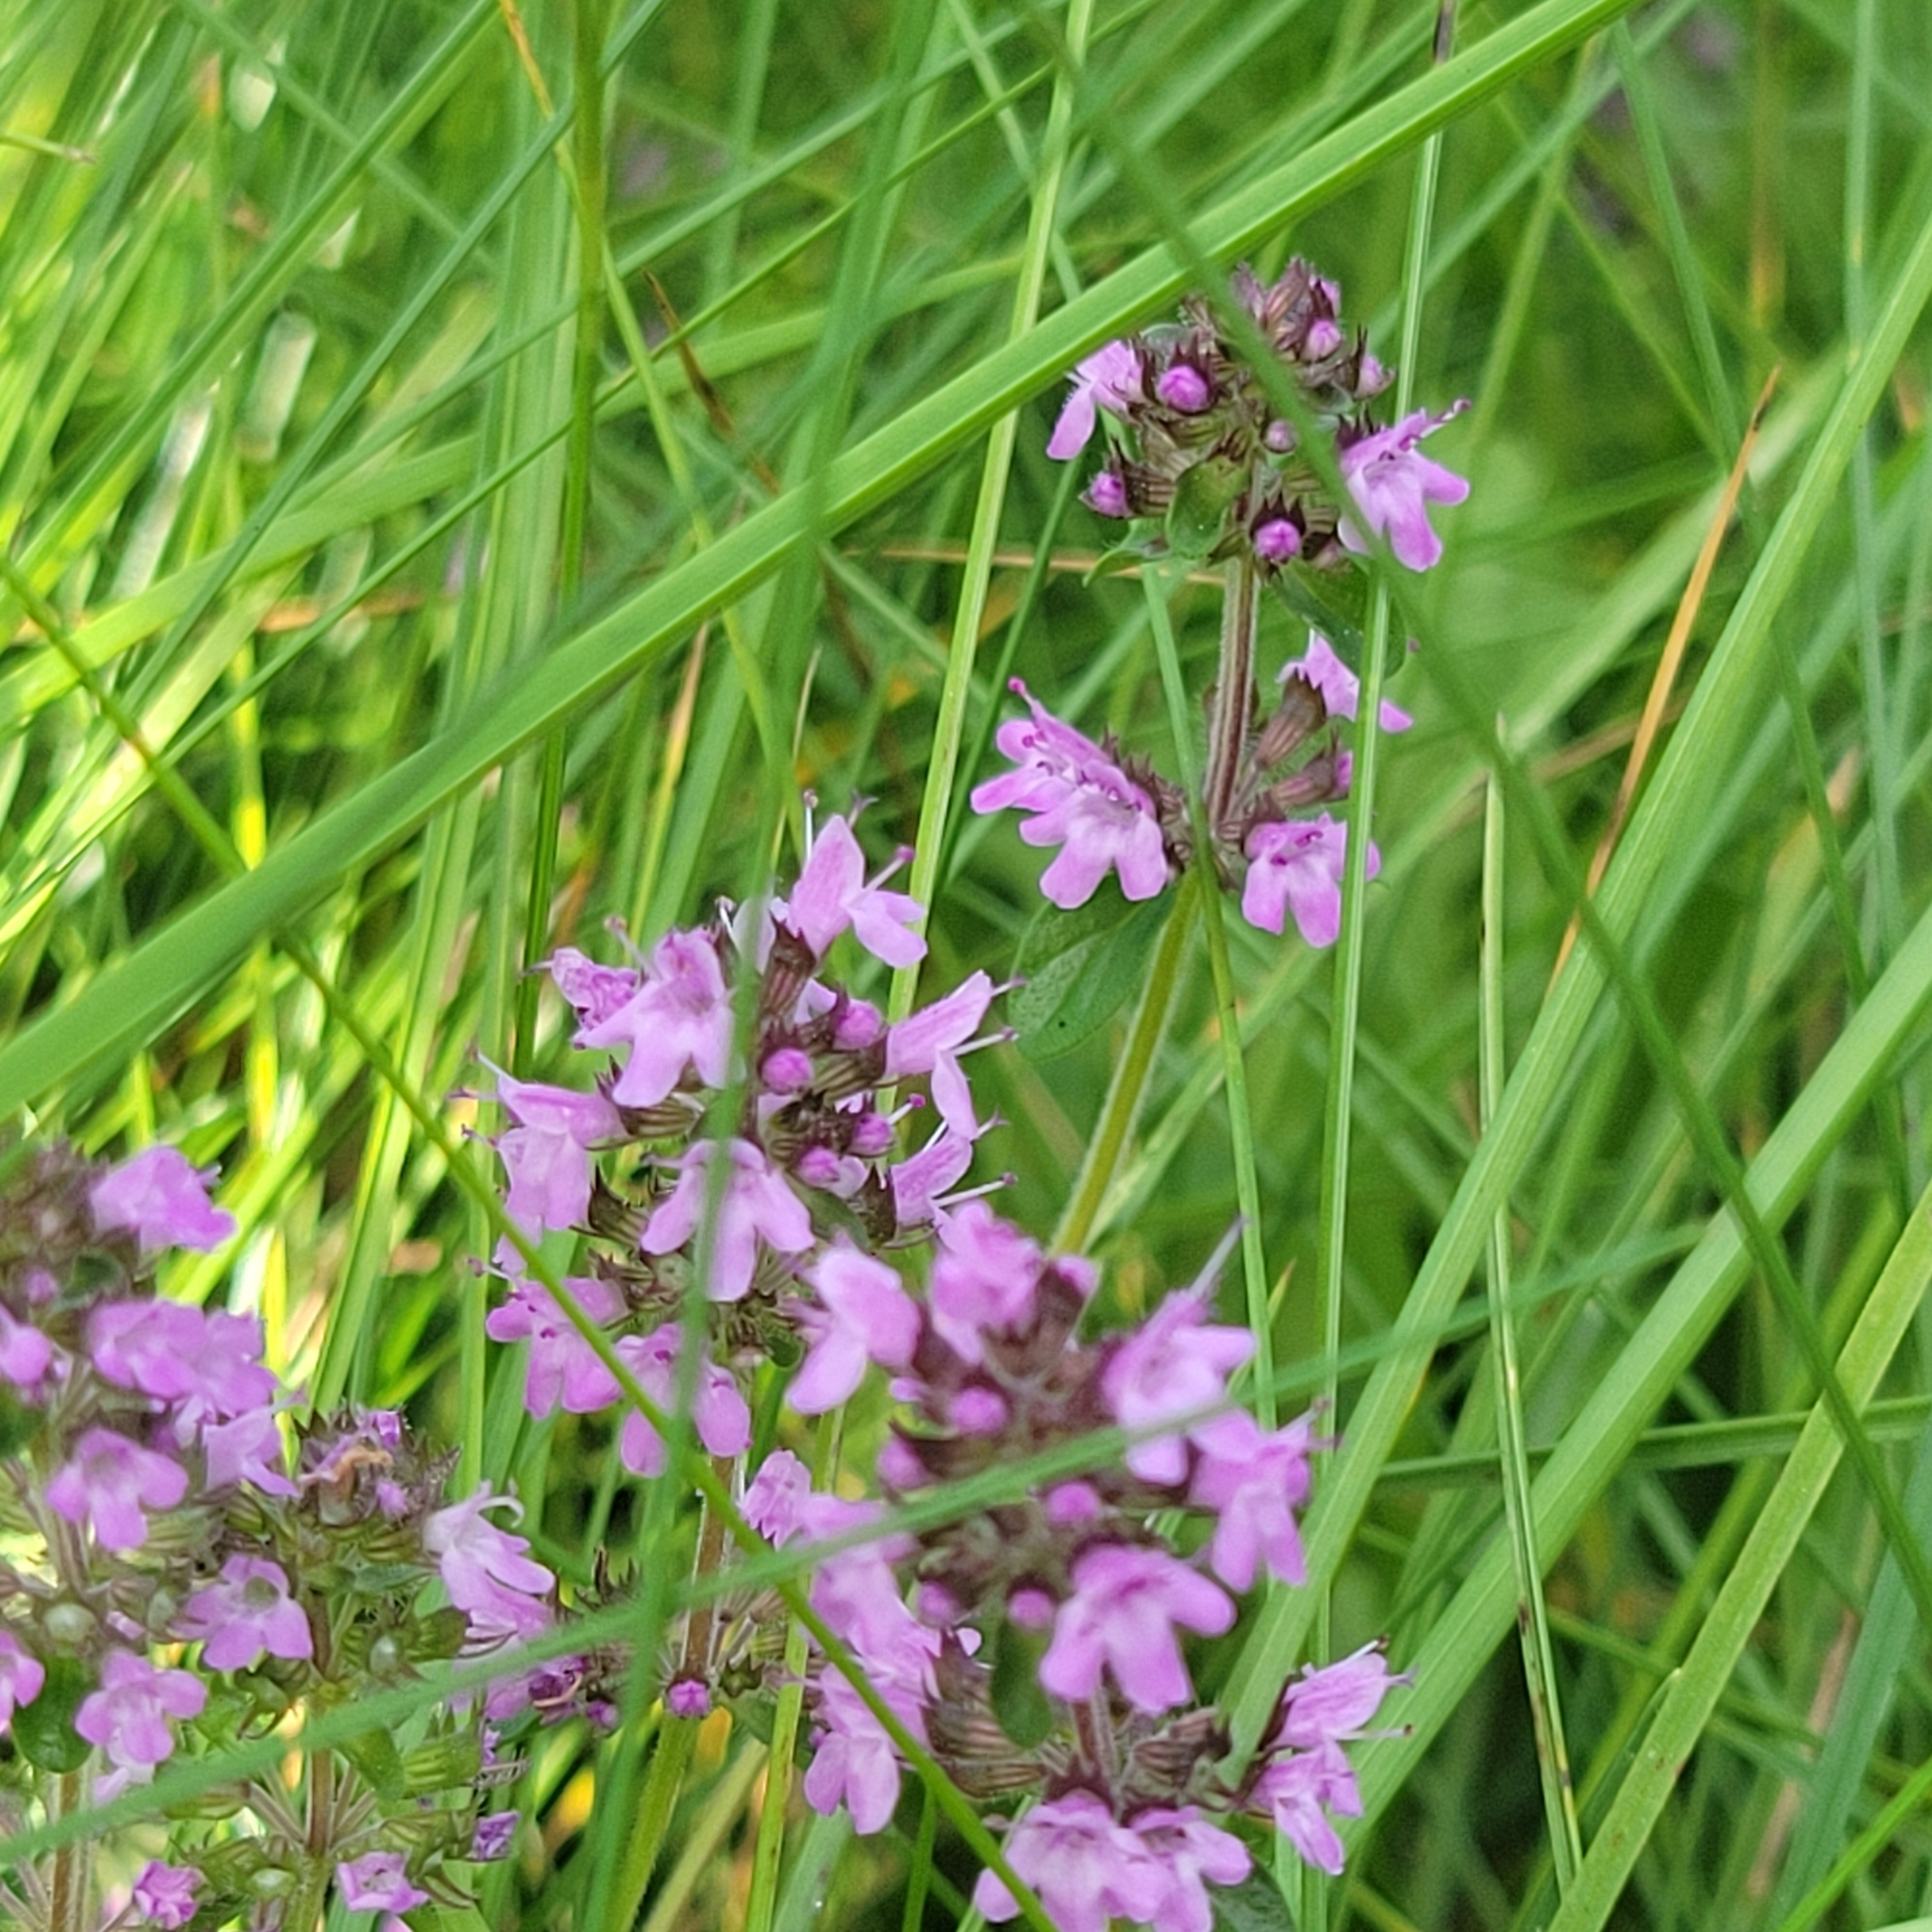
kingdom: Plantae
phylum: Tracheophyta
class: Magnoliopsida
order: Lamiales
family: Lamiaceae
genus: Thymus
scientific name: Thymus pulegioides
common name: Large thyme
